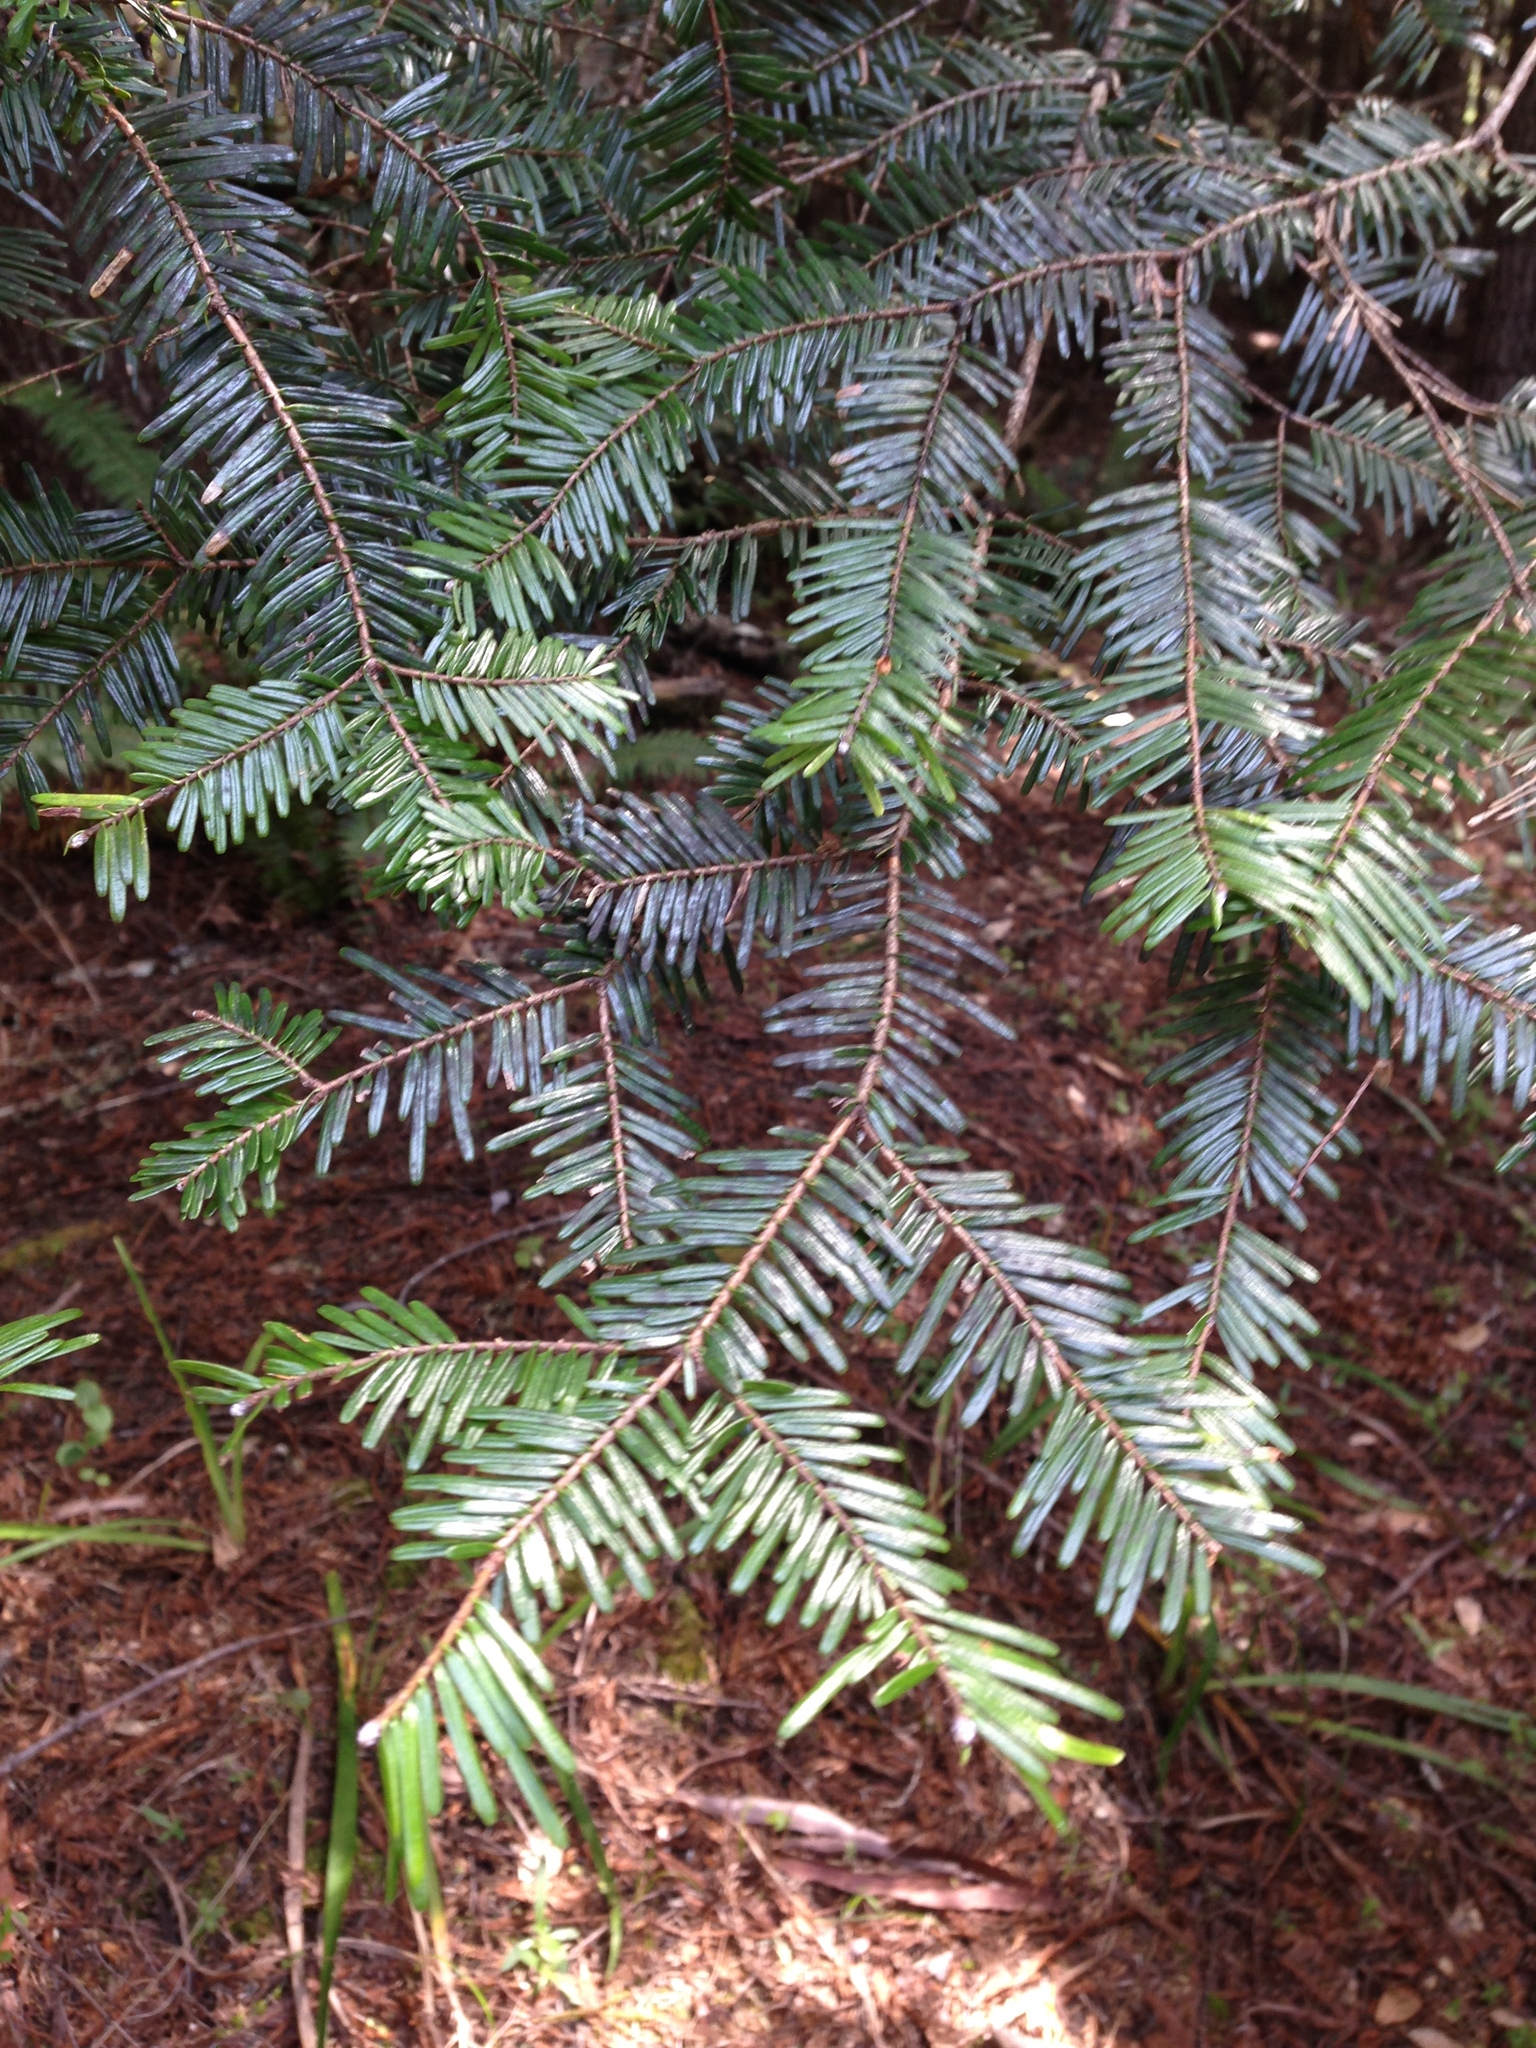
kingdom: Plantae
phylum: Tracheophyta
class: Pinopsida
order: Pinales
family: Pinaceae
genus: Abies
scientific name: Abies grandis
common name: Giant fir
